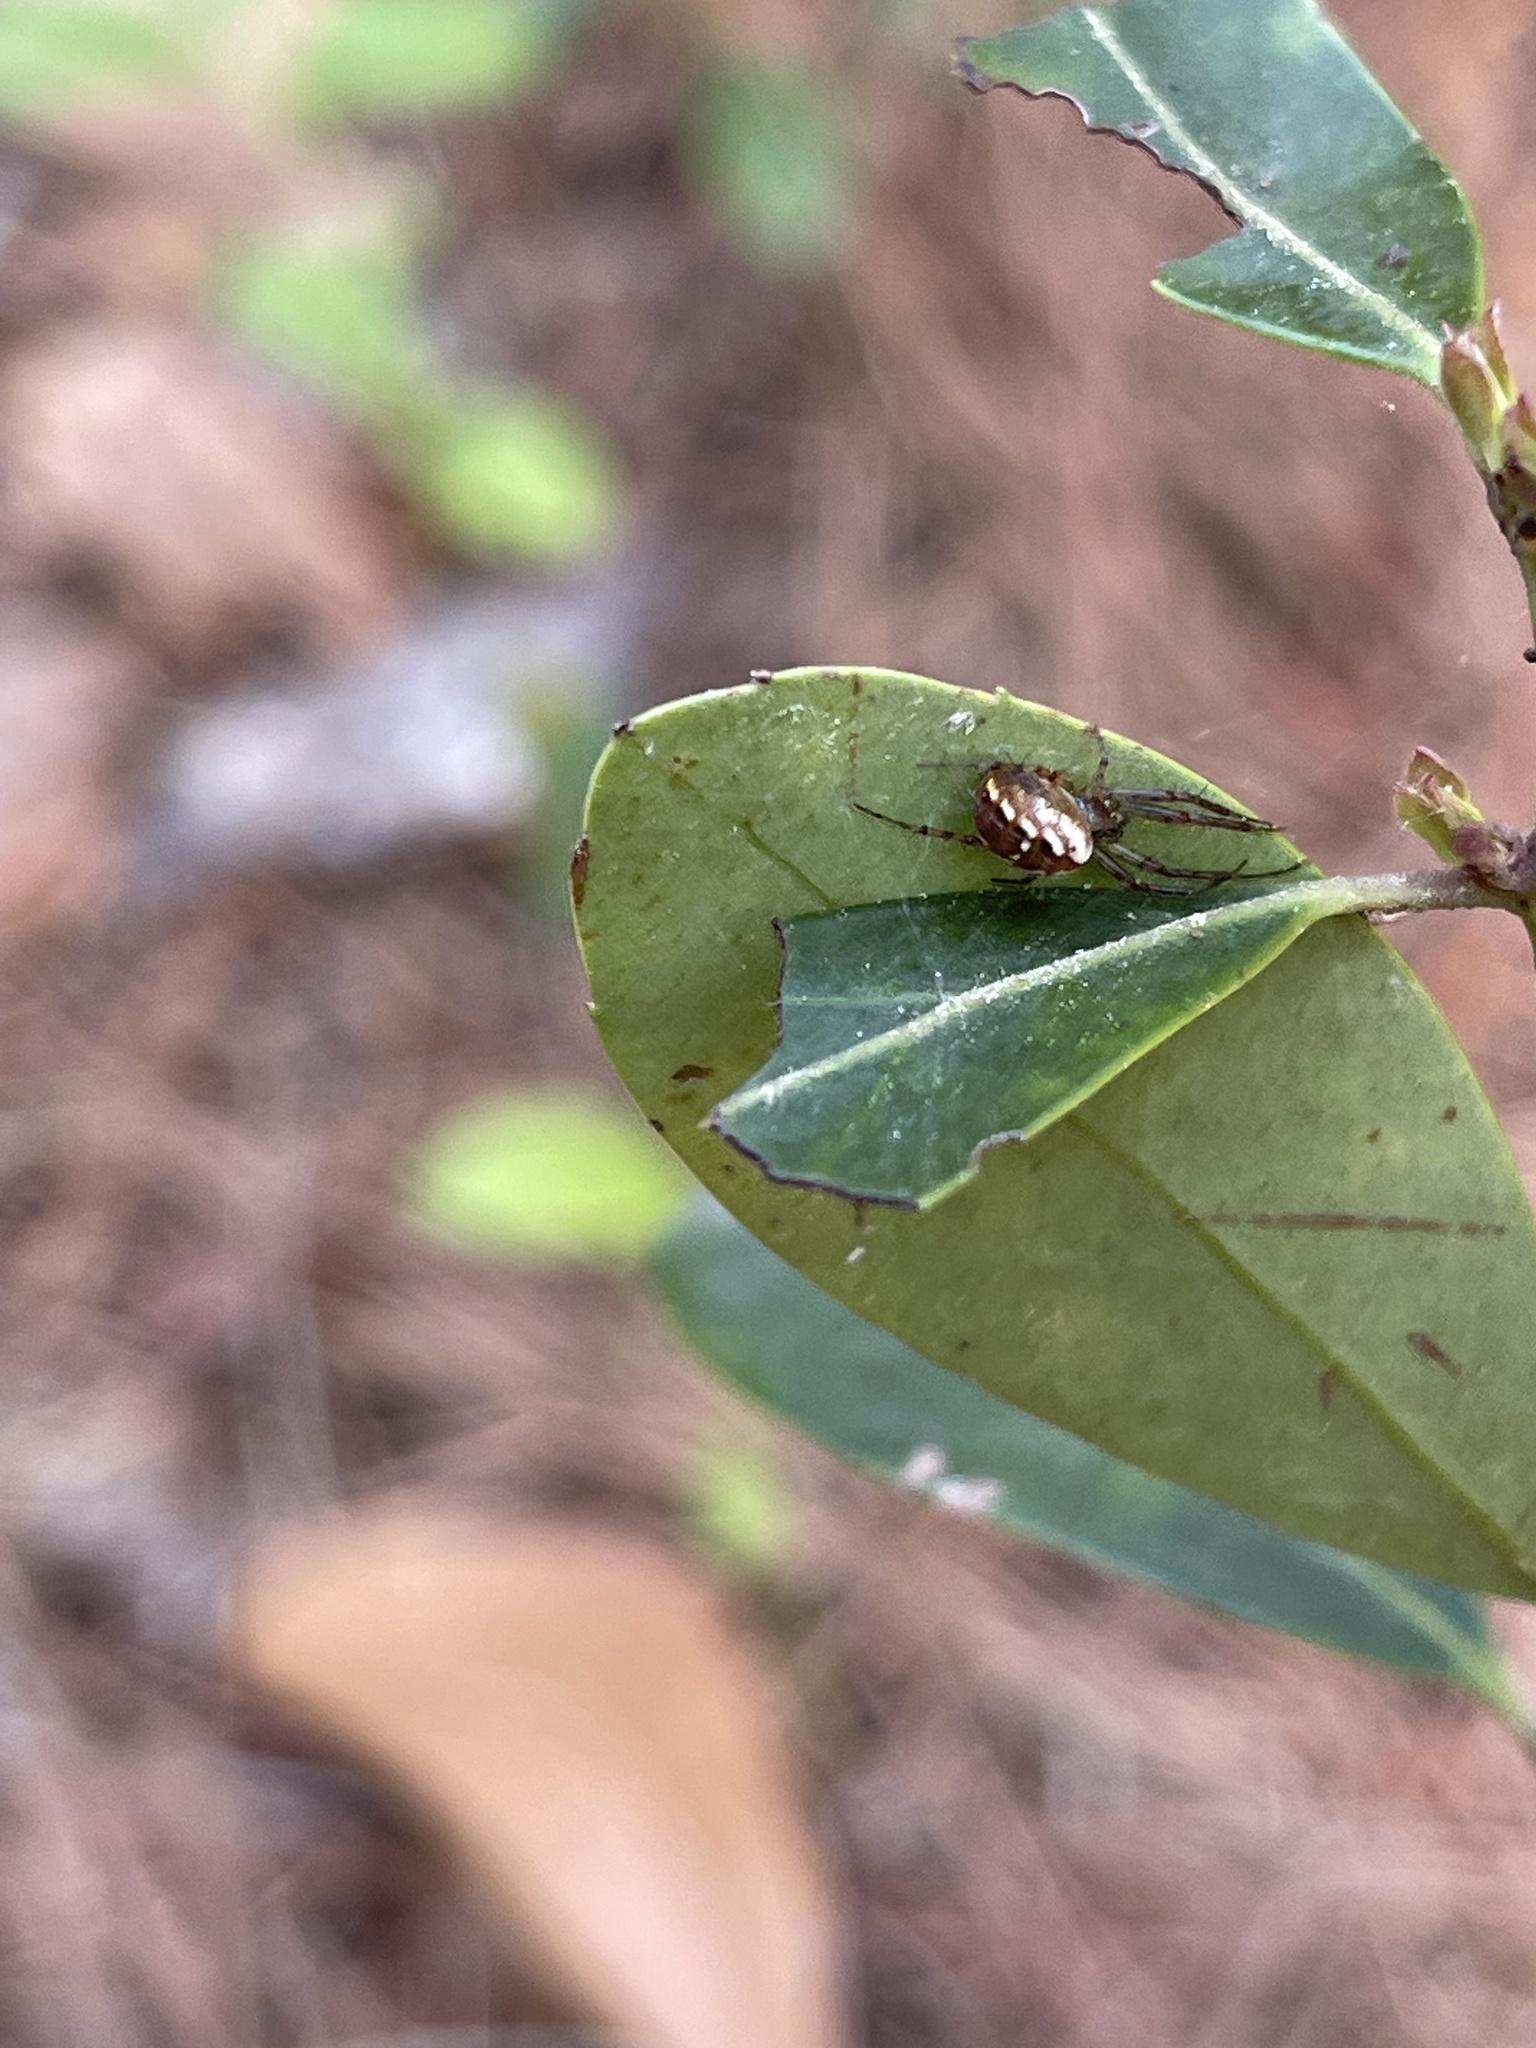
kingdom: Animalia
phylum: Arthropoda
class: Arachnida
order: Araneae
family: Araneidae
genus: Mangora
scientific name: Mangora placida
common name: Tuft-legged orbweaver
